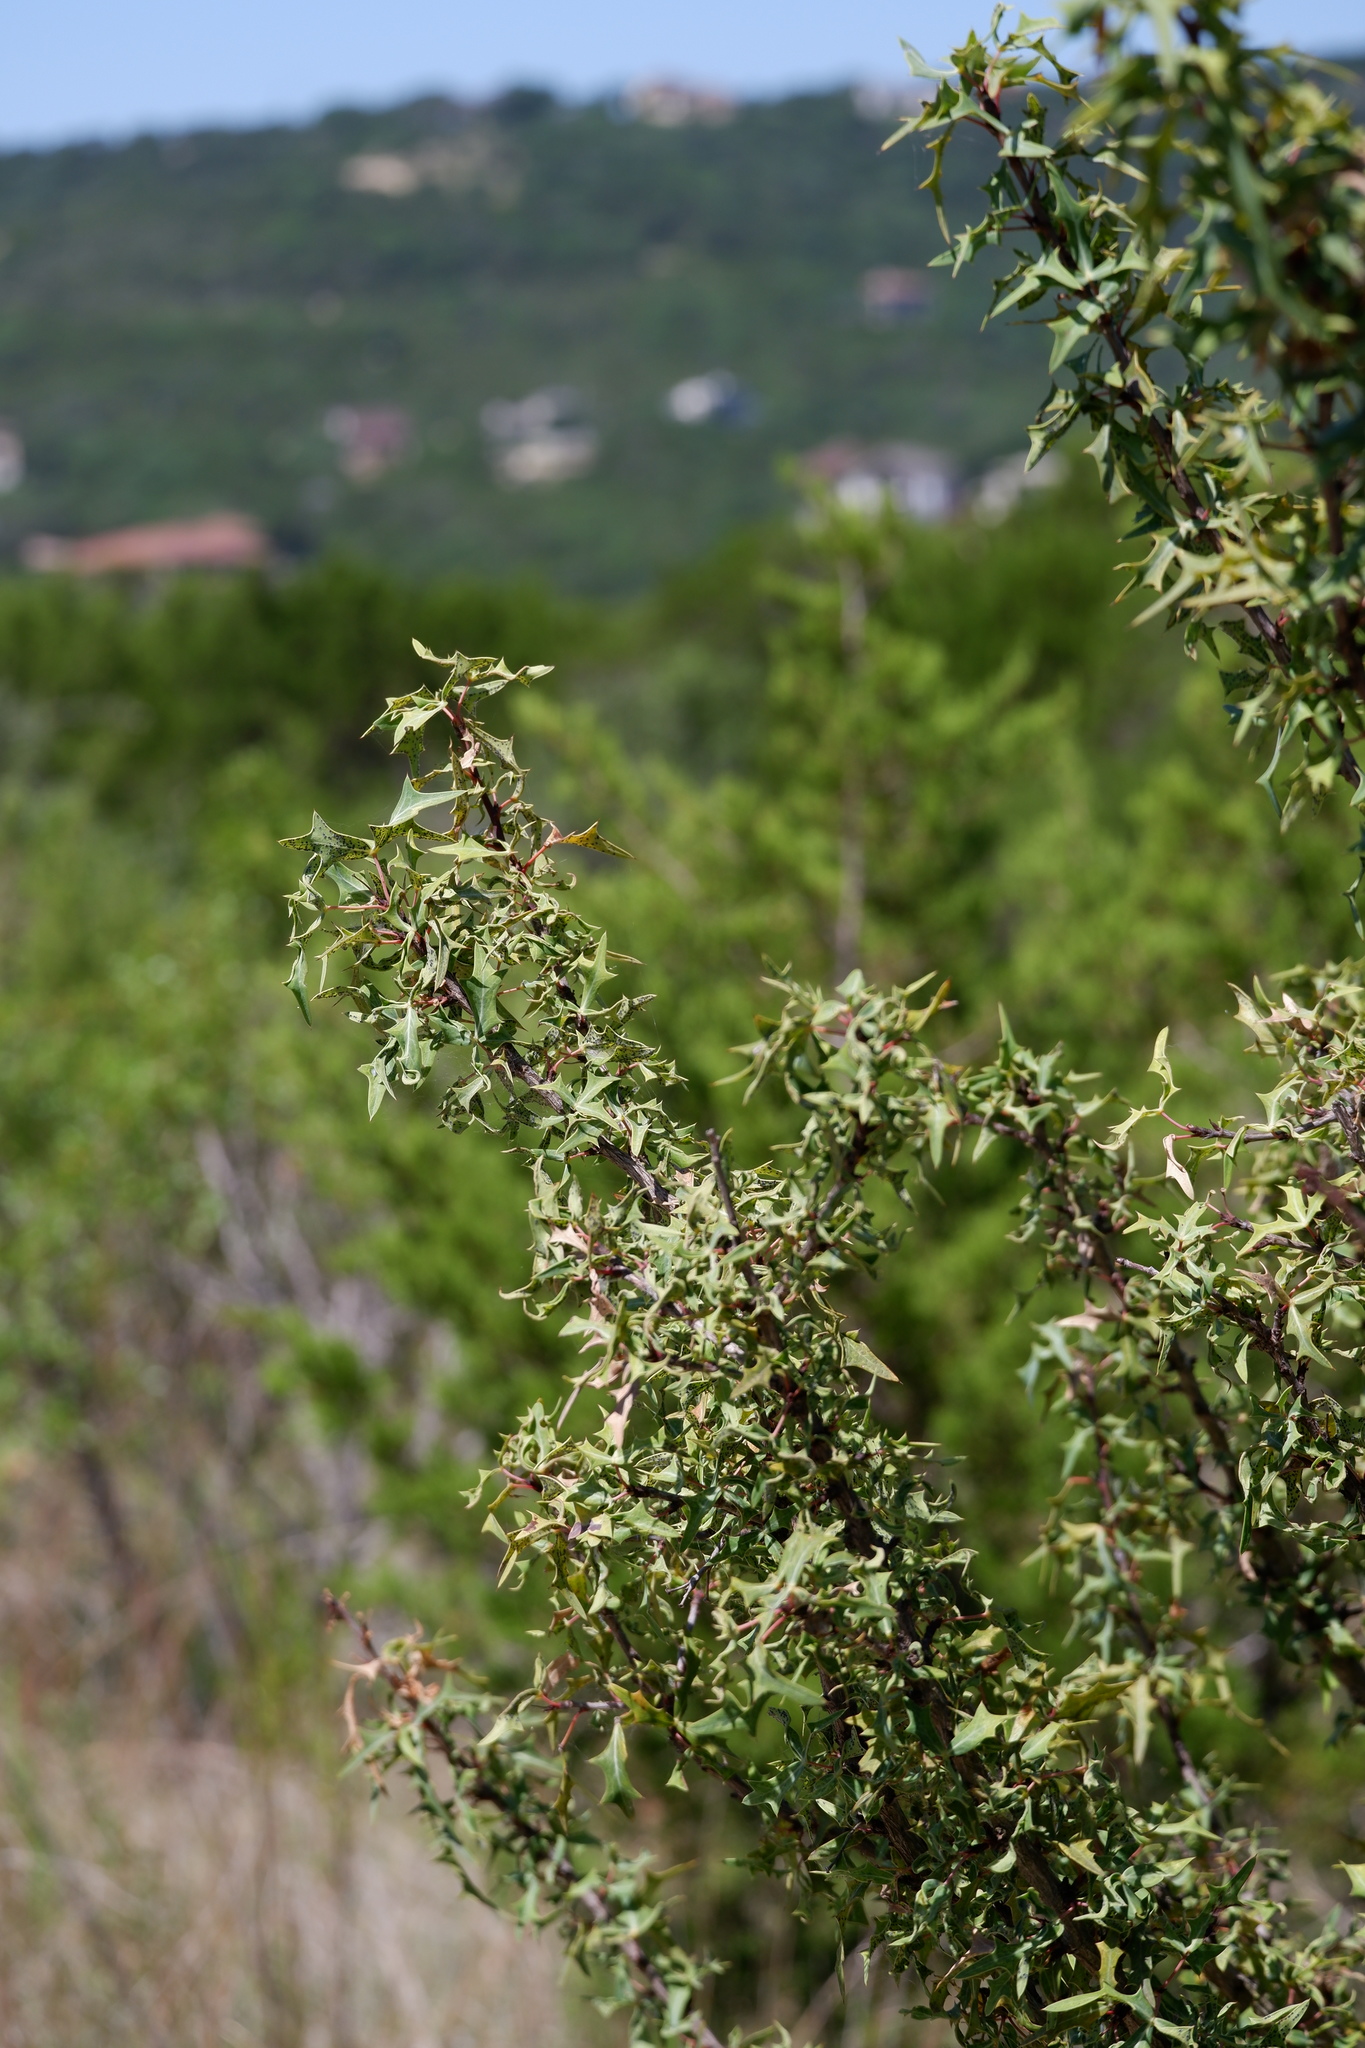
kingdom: Plantae
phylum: Tracheophyta
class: Magnoliopsida
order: Ranunculales
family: Berberidaceae
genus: Alloberberis
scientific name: Alloberberis trifoliolata
